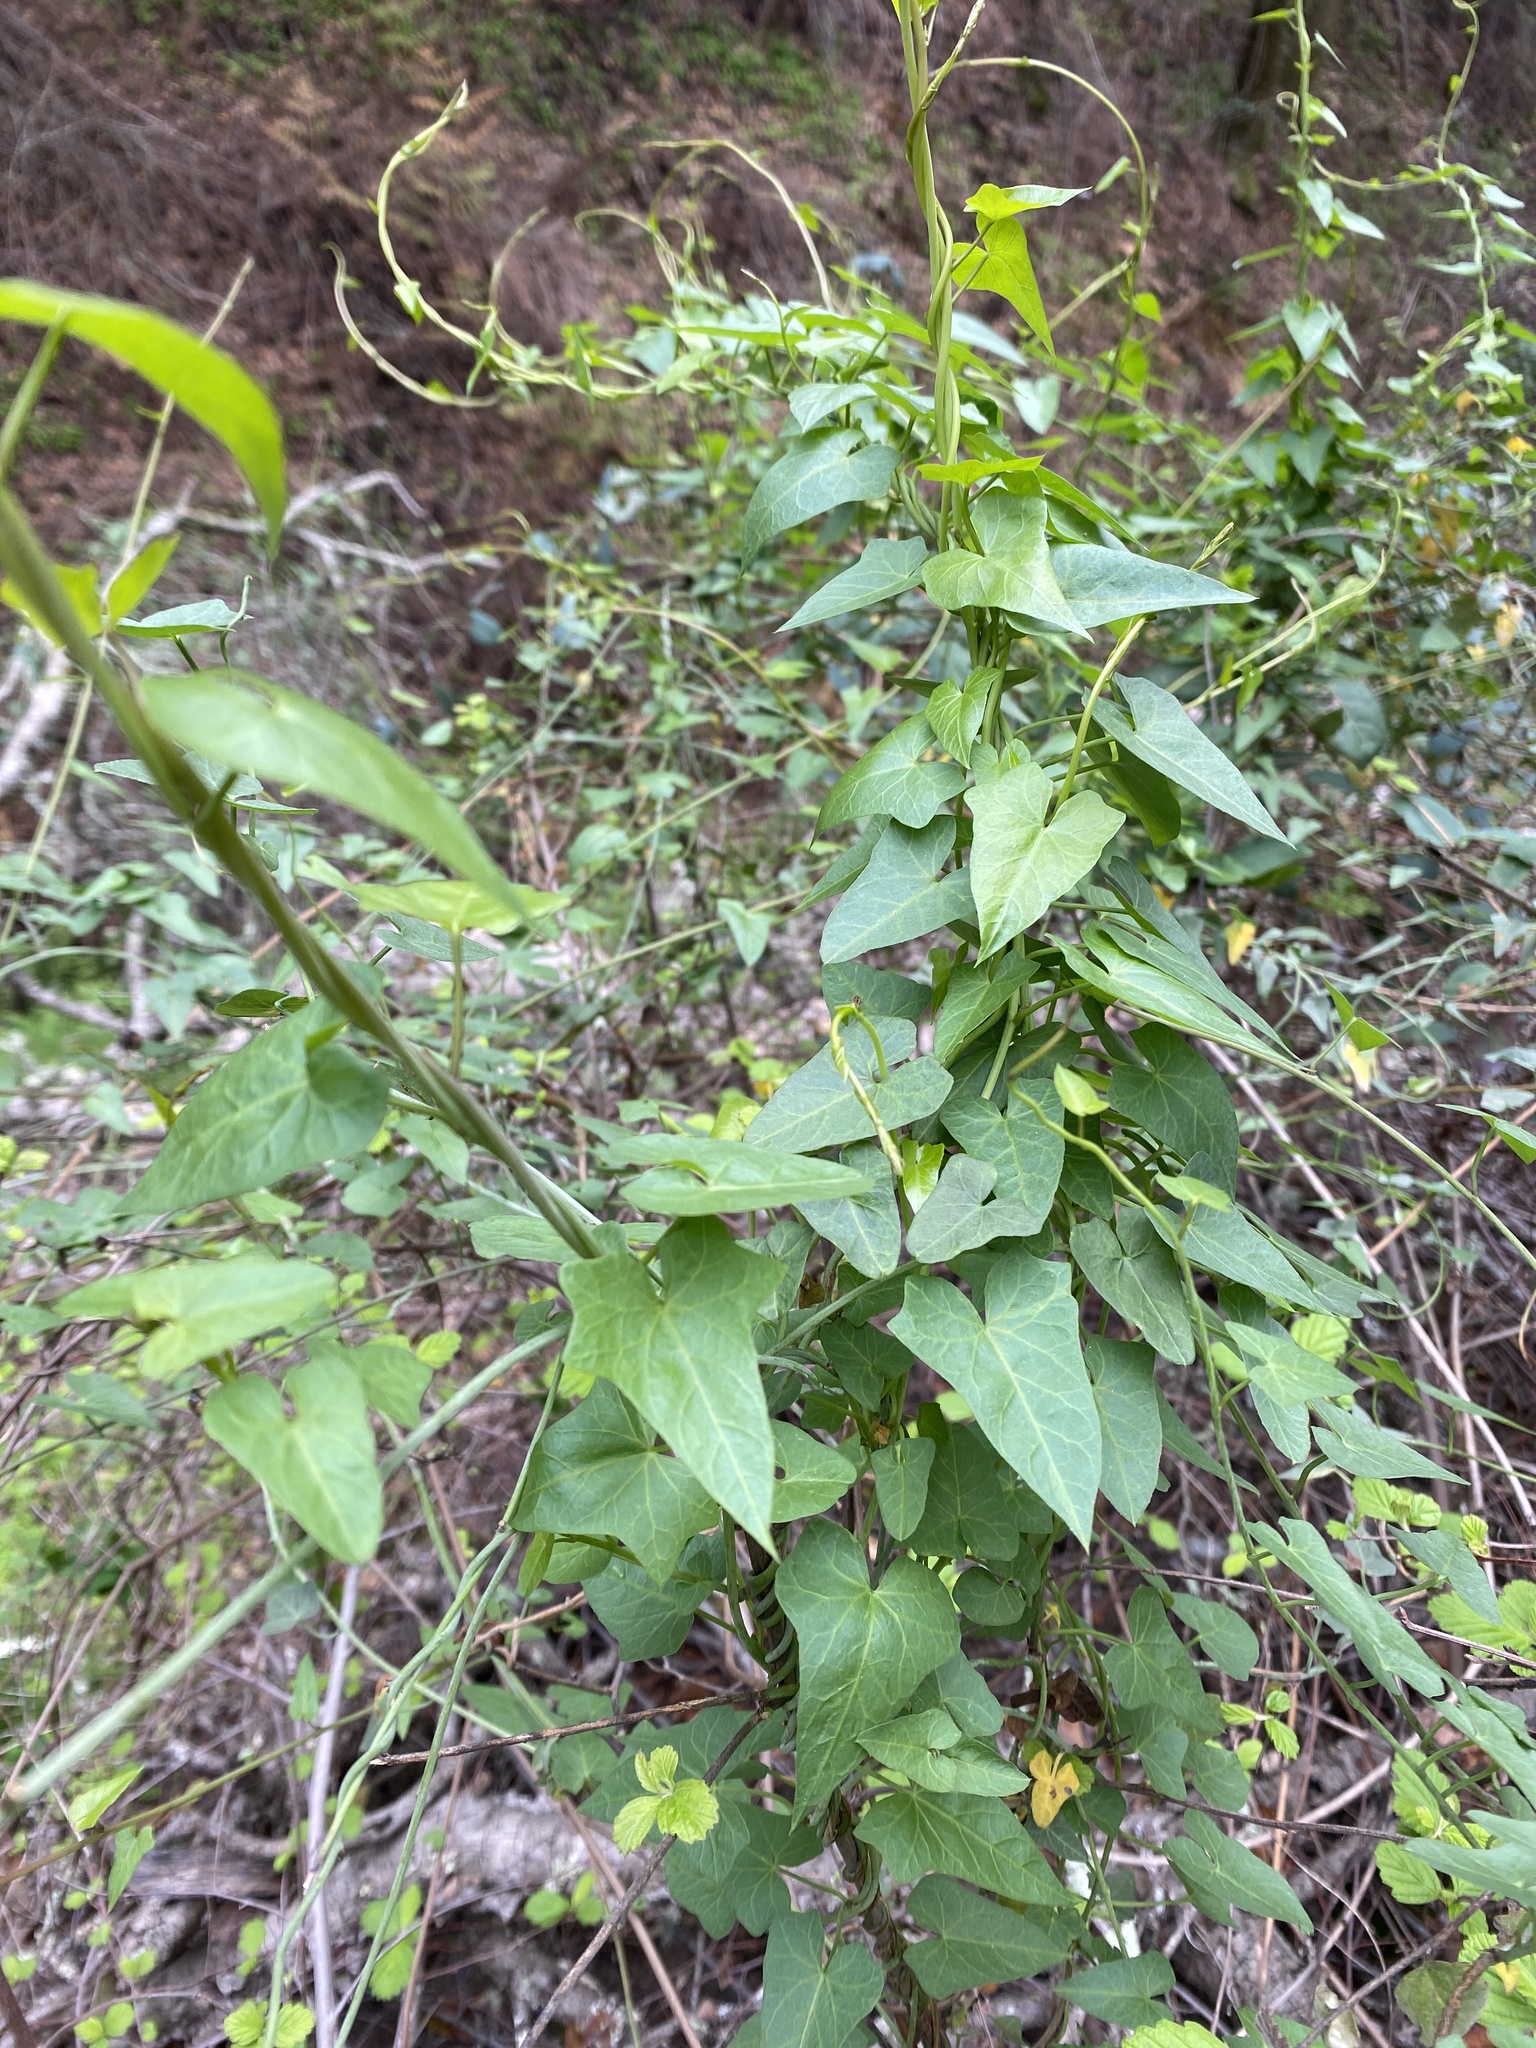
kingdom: Plantae
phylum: Tracheophyta
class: Magnoliopsida
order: Solanales
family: Convolvulaceae
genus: Calystegia
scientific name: Calystegia purpurata
